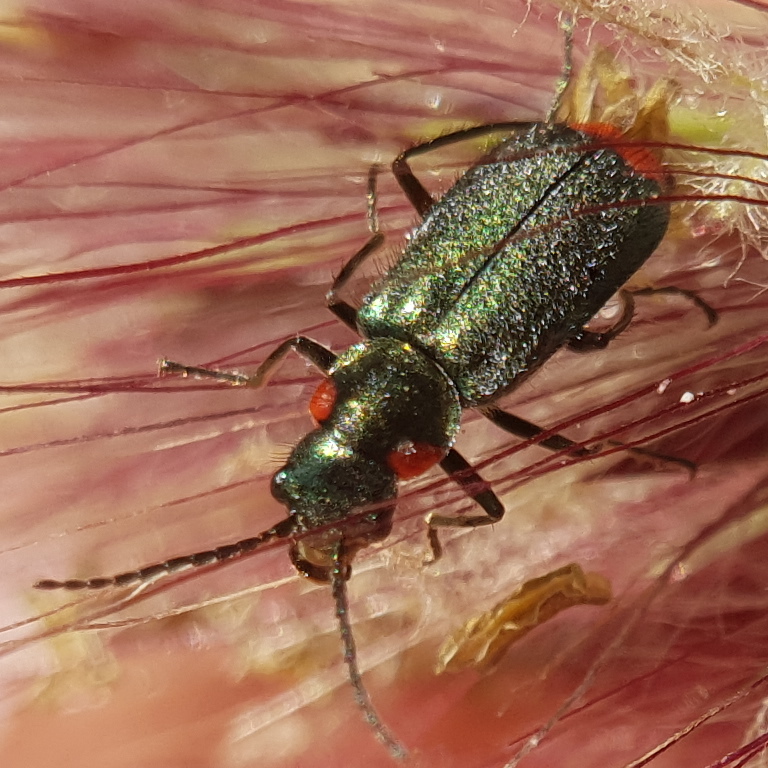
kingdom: Animalia
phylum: Arthropoda
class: Insecta
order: Coleoptera
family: Malachiidae
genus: Clanoptilus
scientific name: Clanoptilus assimilis
